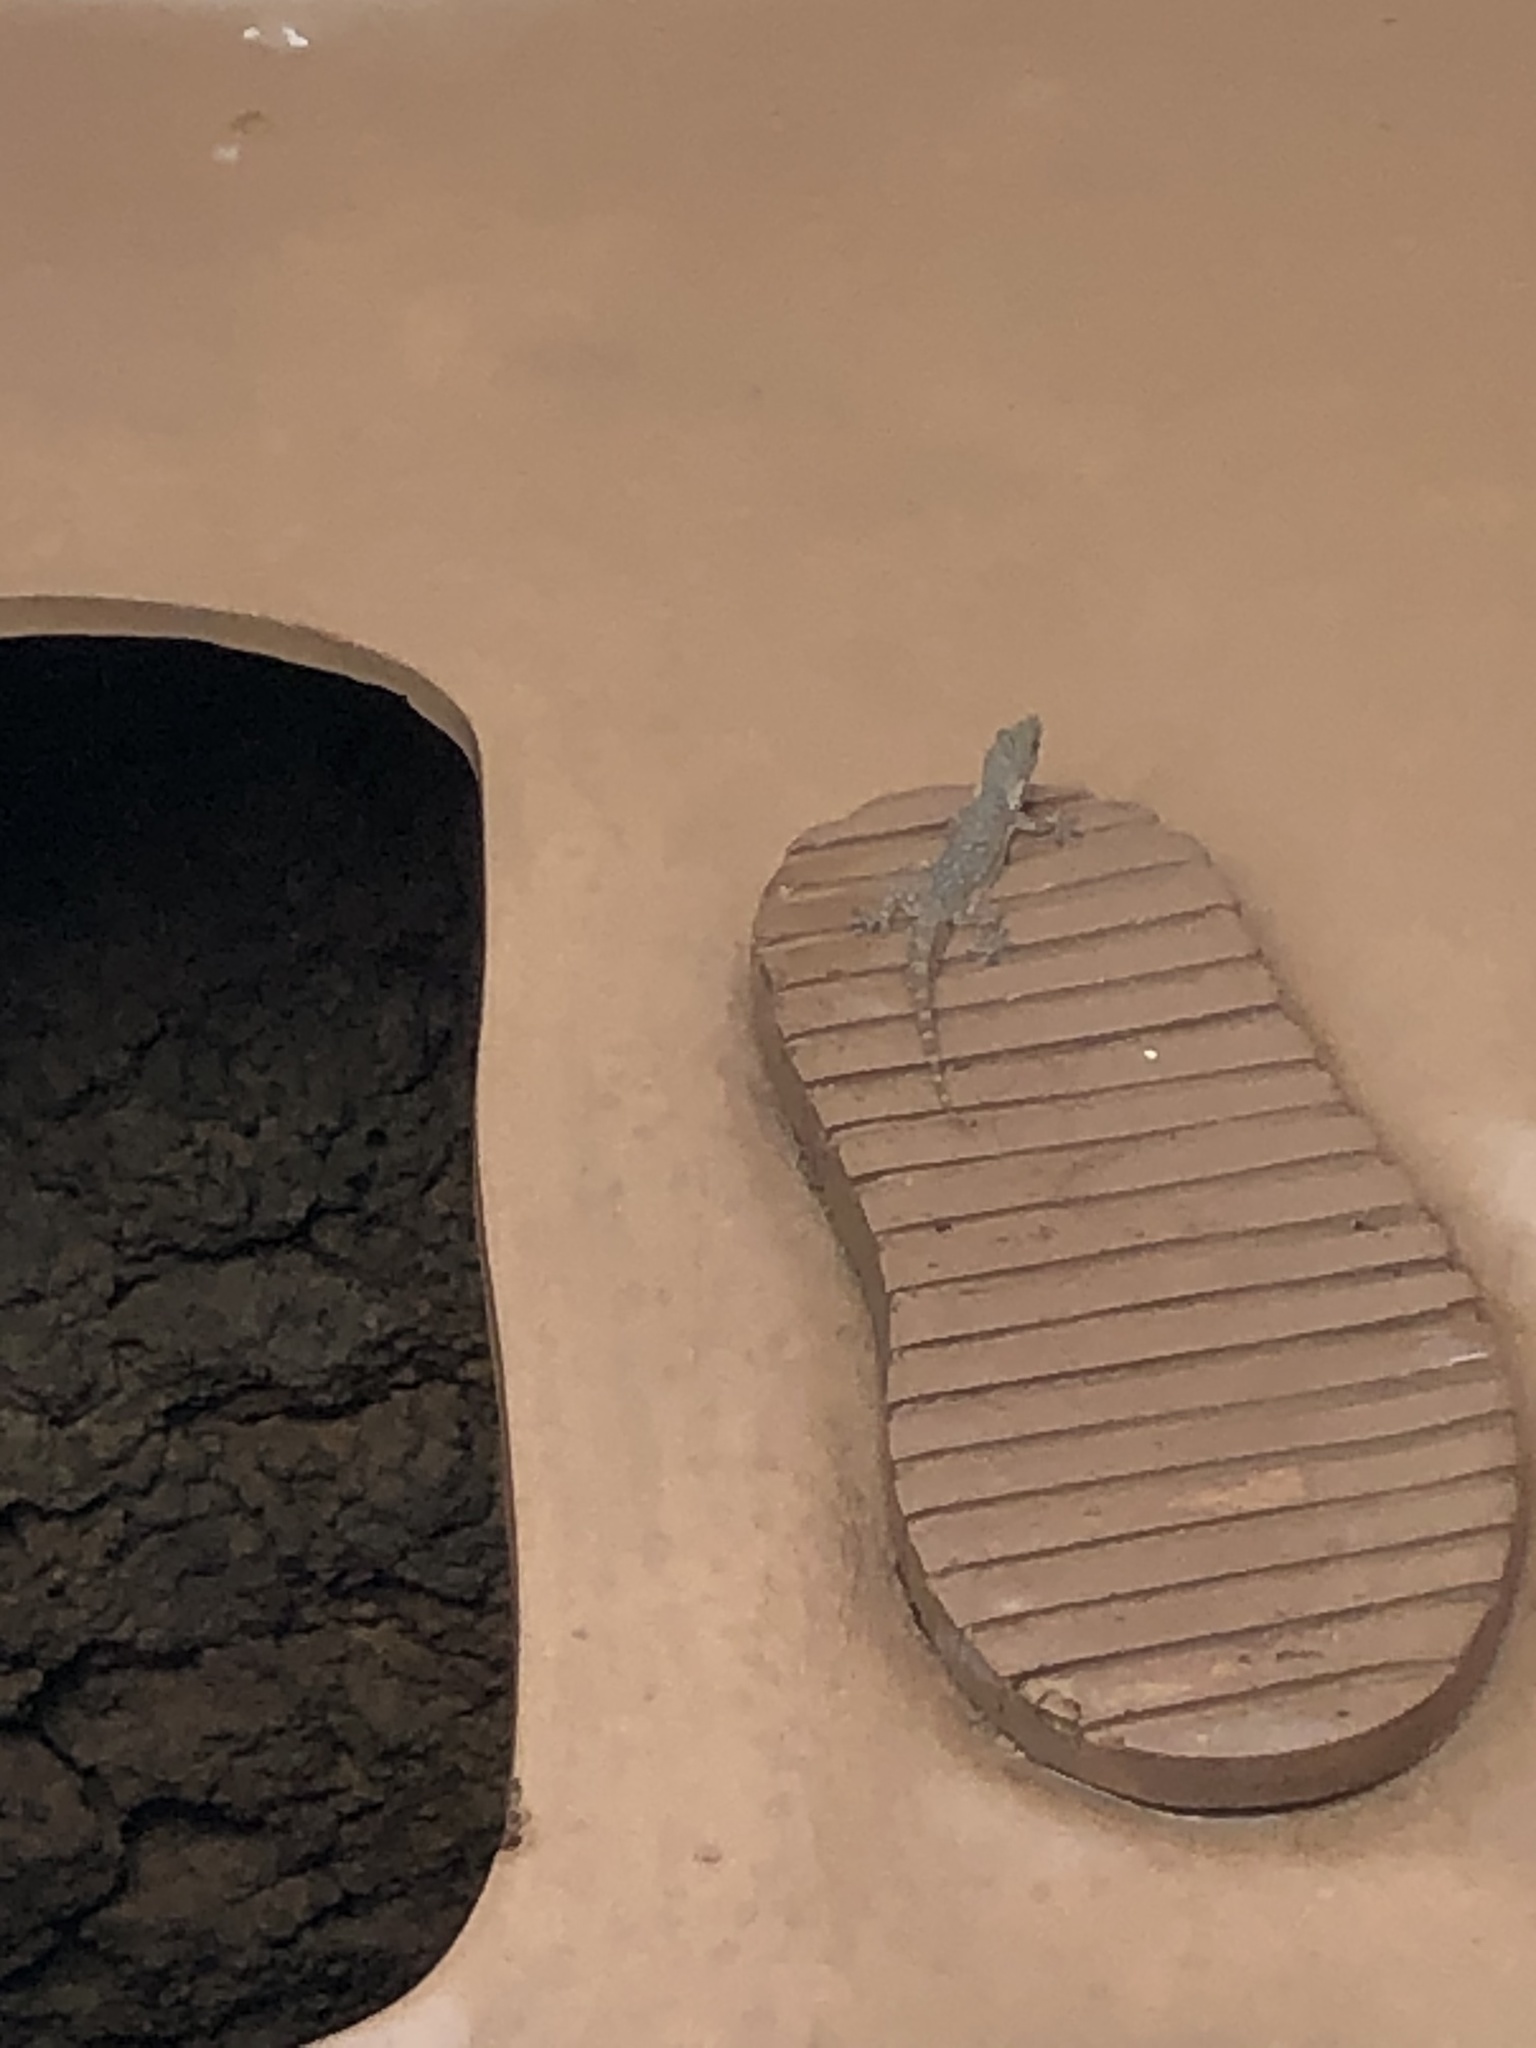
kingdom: Animalia
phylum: Chordata
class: Squamata
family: Gekkonidae
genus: Hemidactylus
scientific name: Hemidactylus garnotii
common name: Indo-pacific gecko
